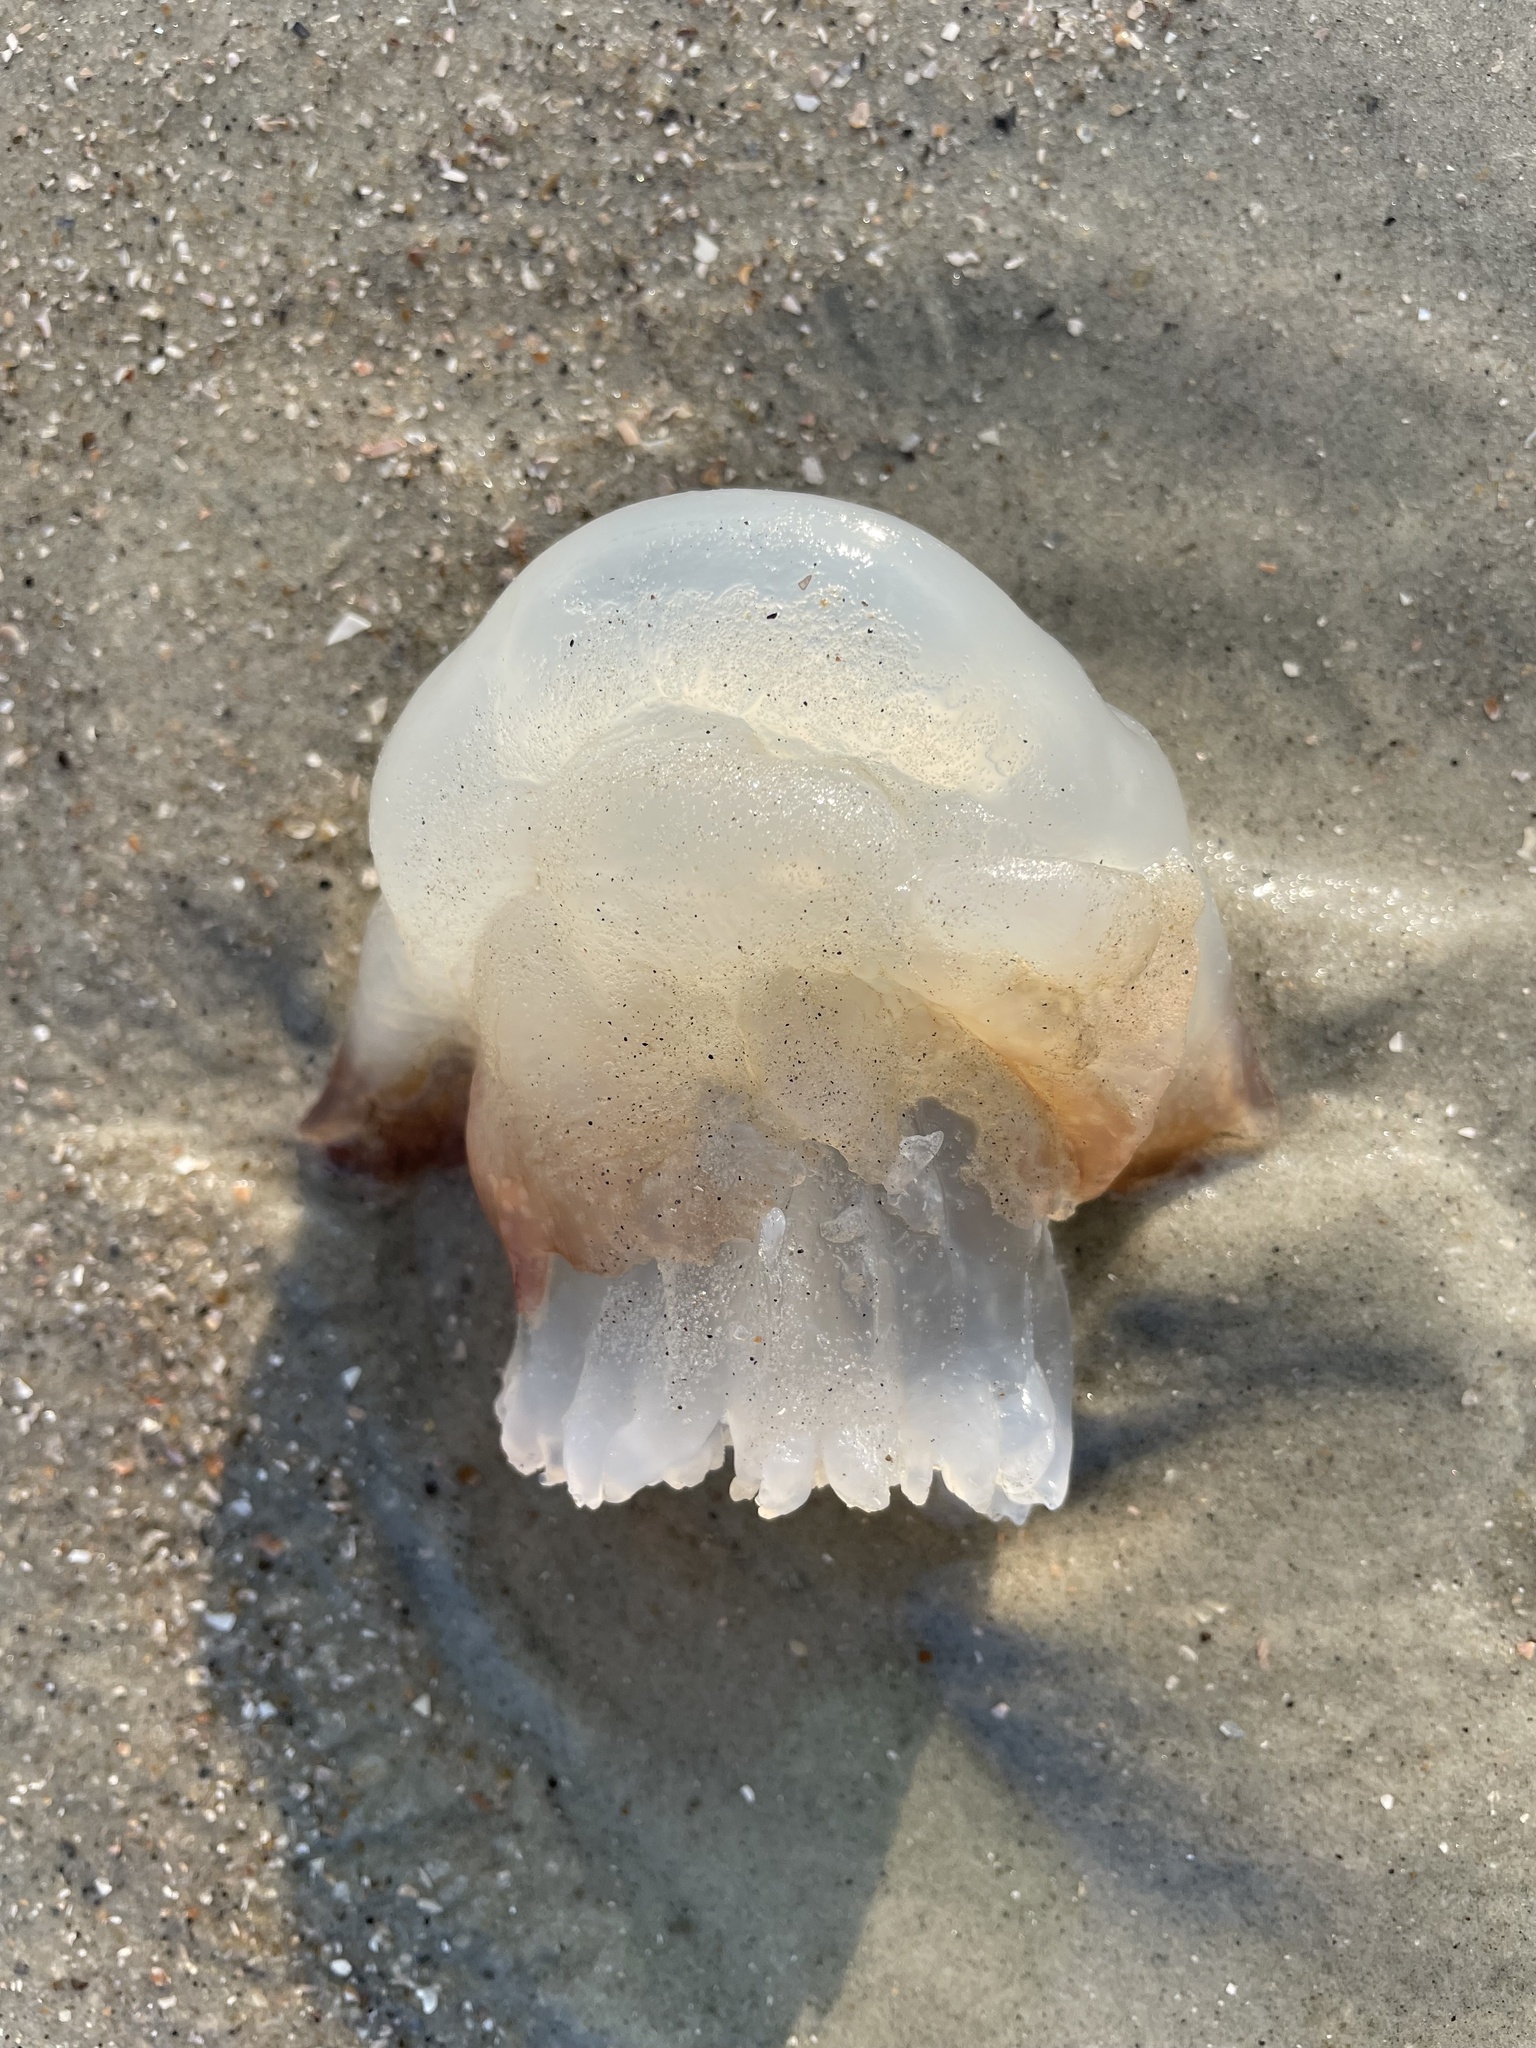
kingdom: Animalia
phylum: Cnidaria
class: Scyphozoa
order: Rhizostomeae
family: Stomolophidae
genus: Stomolophus
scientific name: Stomolophus meleagris
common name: Cabbagehead
